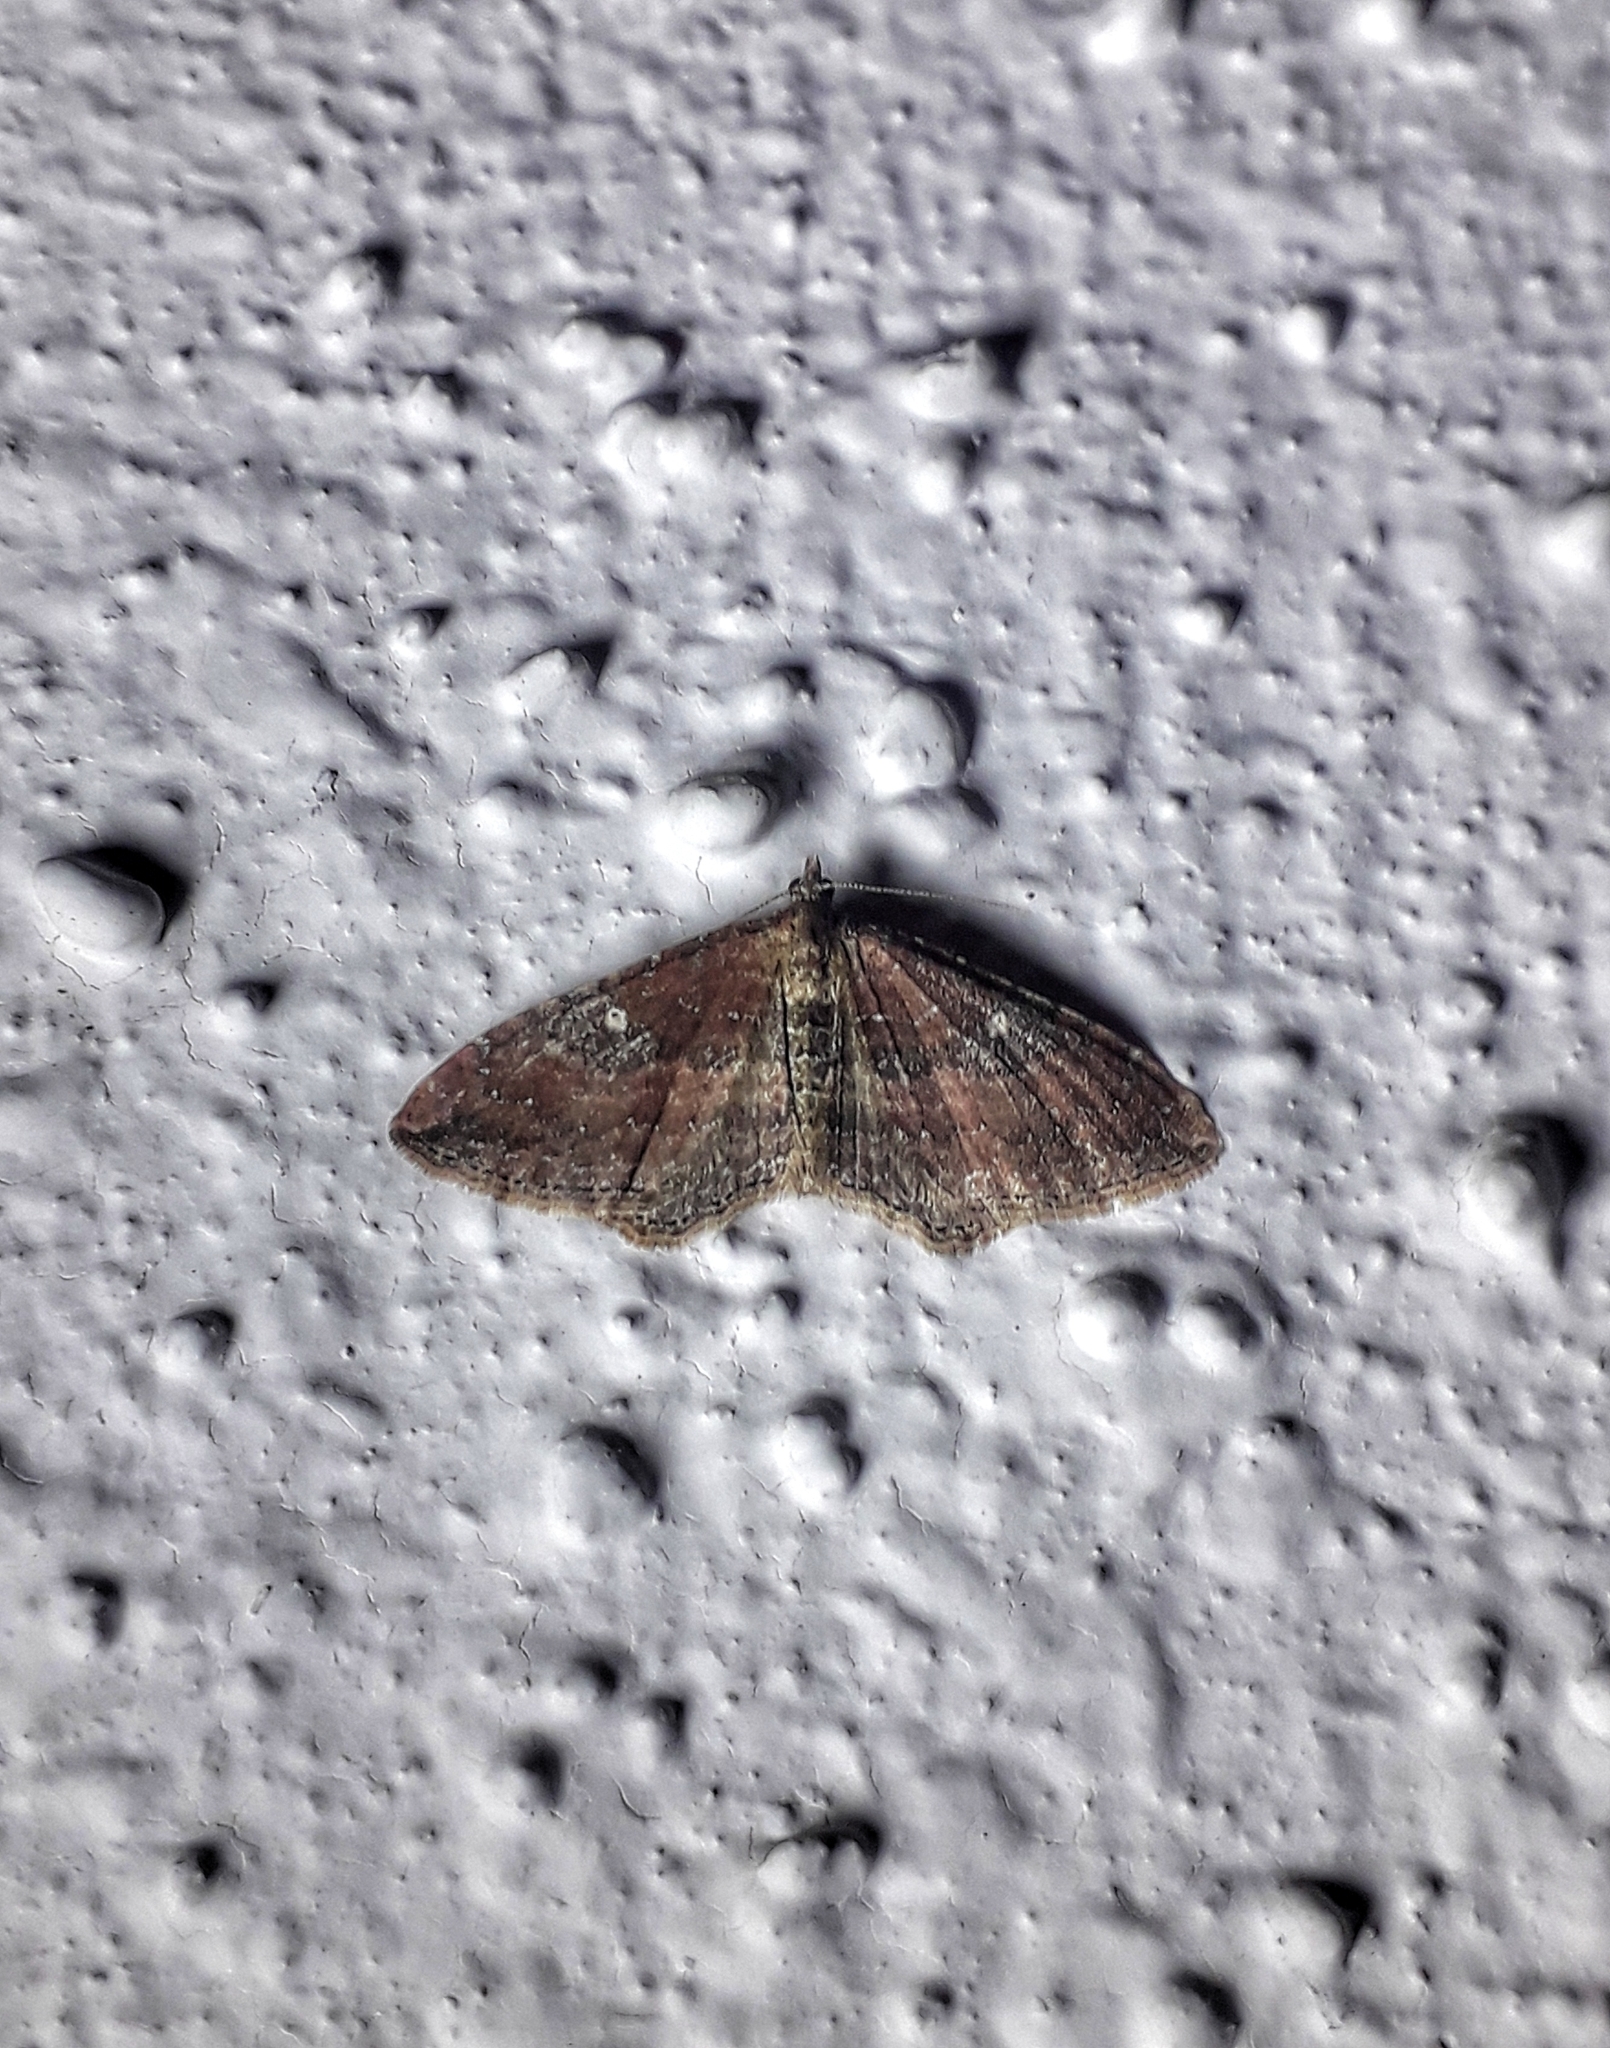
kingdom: Animalia
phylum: Arthropoda
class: Insecta
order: Lepidoptera
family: Geometridae
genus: Orthonama
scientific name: Orthonama obstipata
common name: The gem
